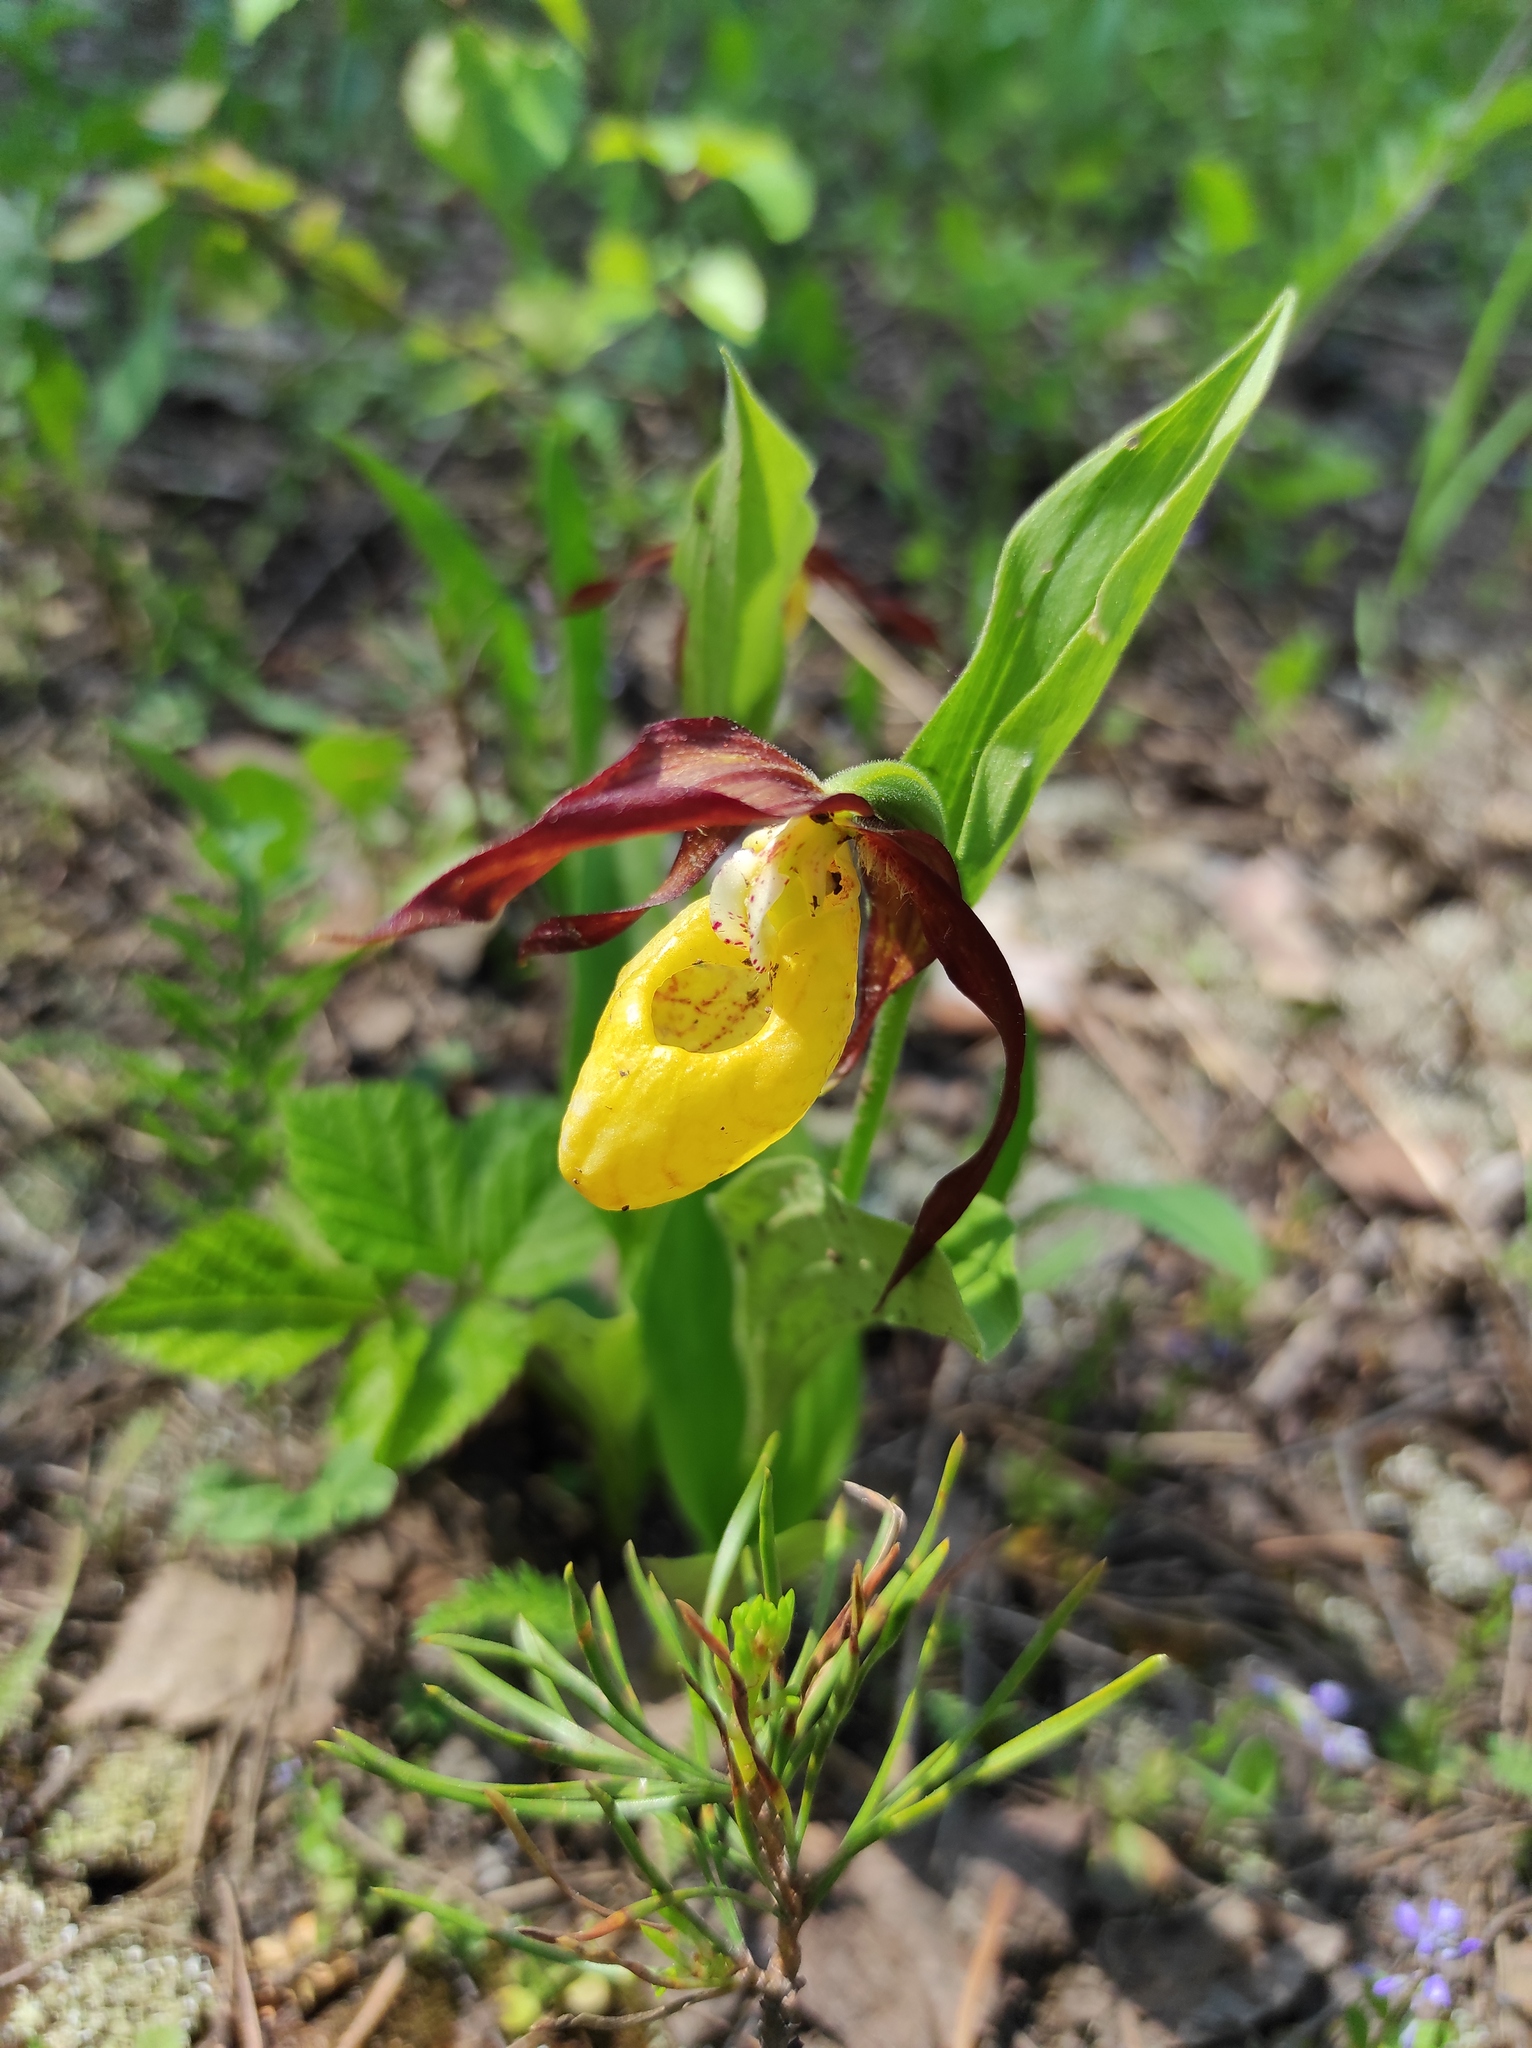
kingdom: Plantae
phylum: Tracheophyta
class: Liliopsida
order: Asparagales
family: Orchidaceae
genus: Cypripedium
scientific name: Cypripedium calceolus
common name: Lady's-slipper
